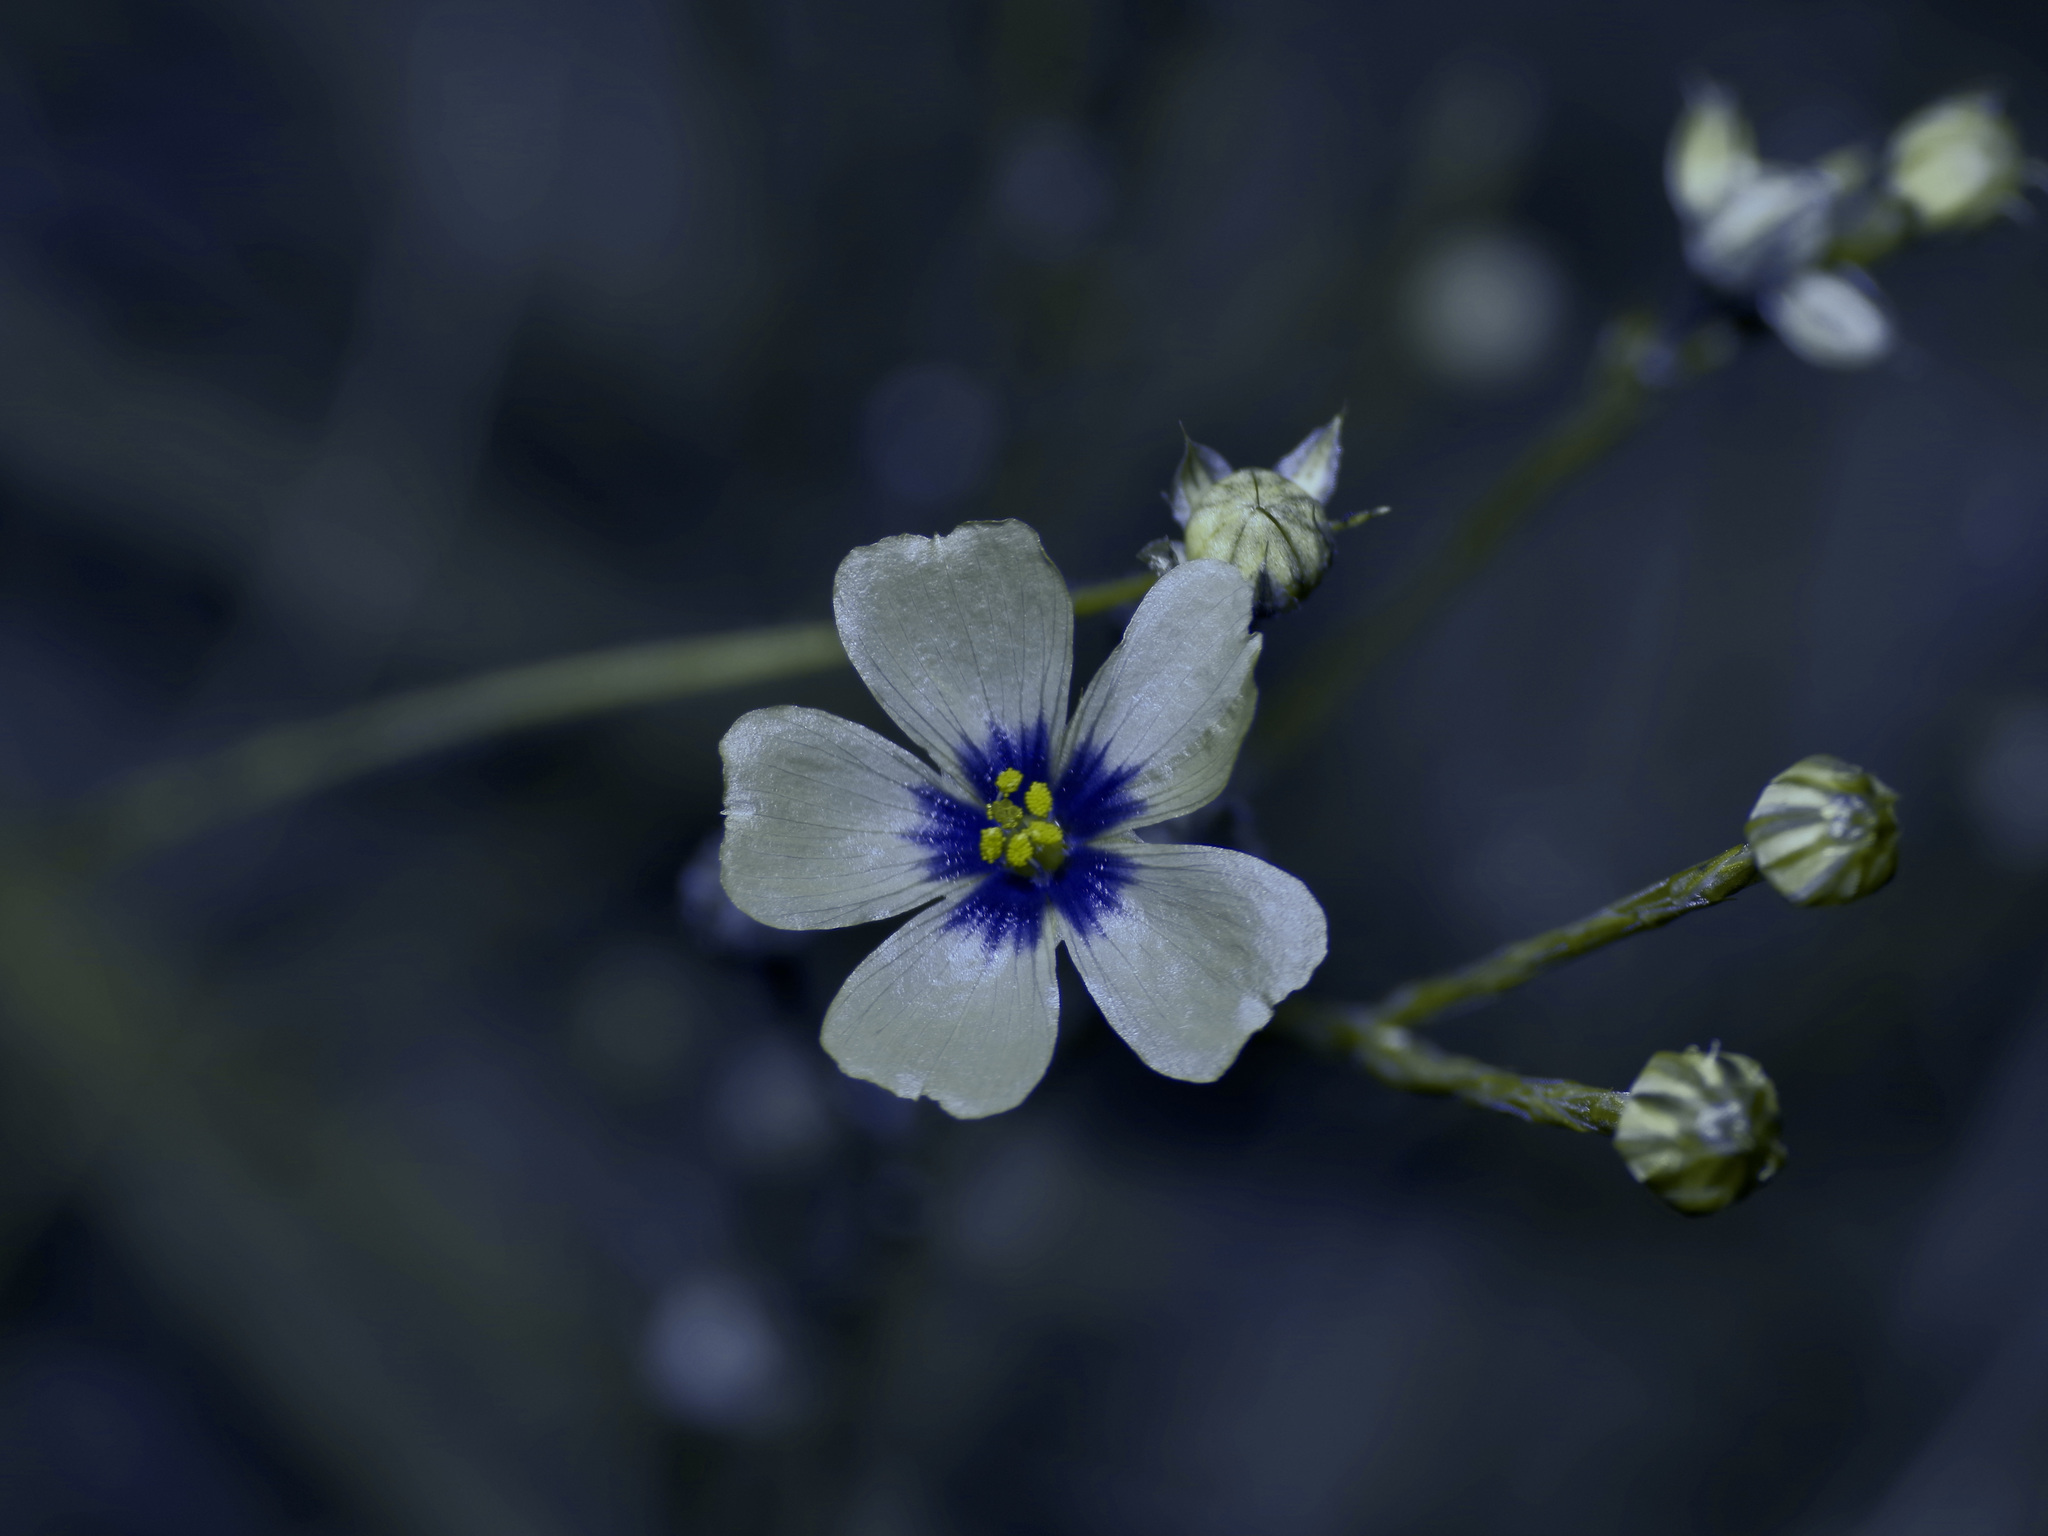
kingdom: Plantae
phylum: Tracheophyta
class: Magnoliopsida
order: Malpighiales
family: Linaceae
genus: Linum
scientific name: Linum hudsonioides
